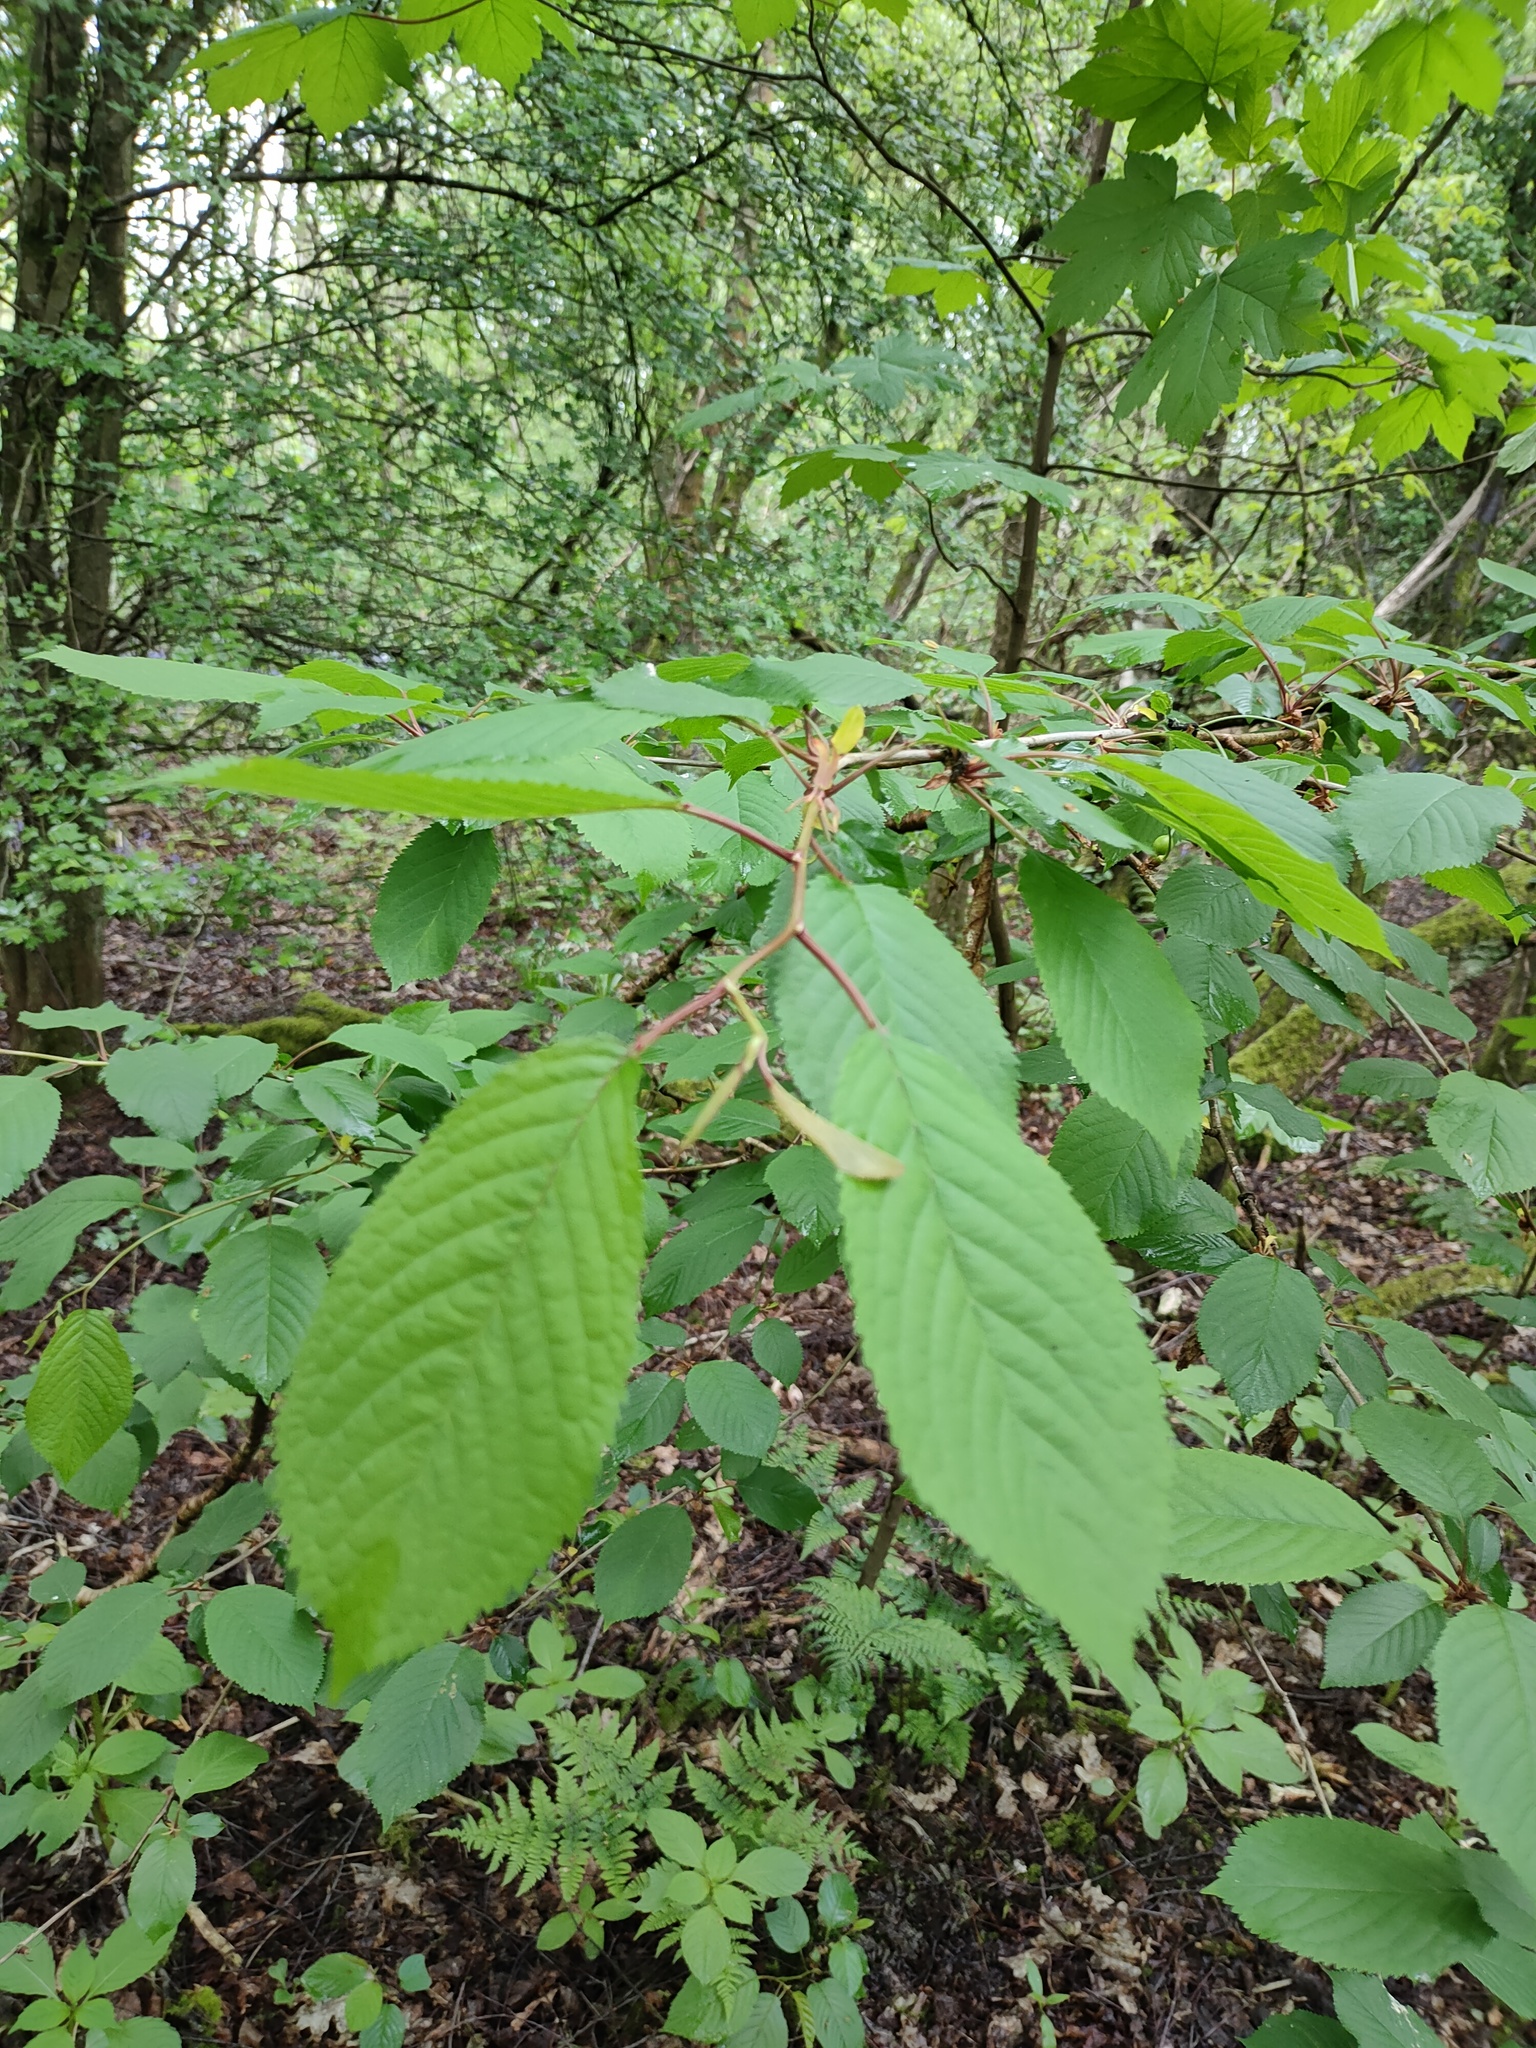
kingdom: Plantae
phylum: Tracheophyta
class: Magnoliopsida
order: Rosales
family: Rosaceae
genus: Prunus
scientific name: Prunus avium
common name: Sweet cherry
